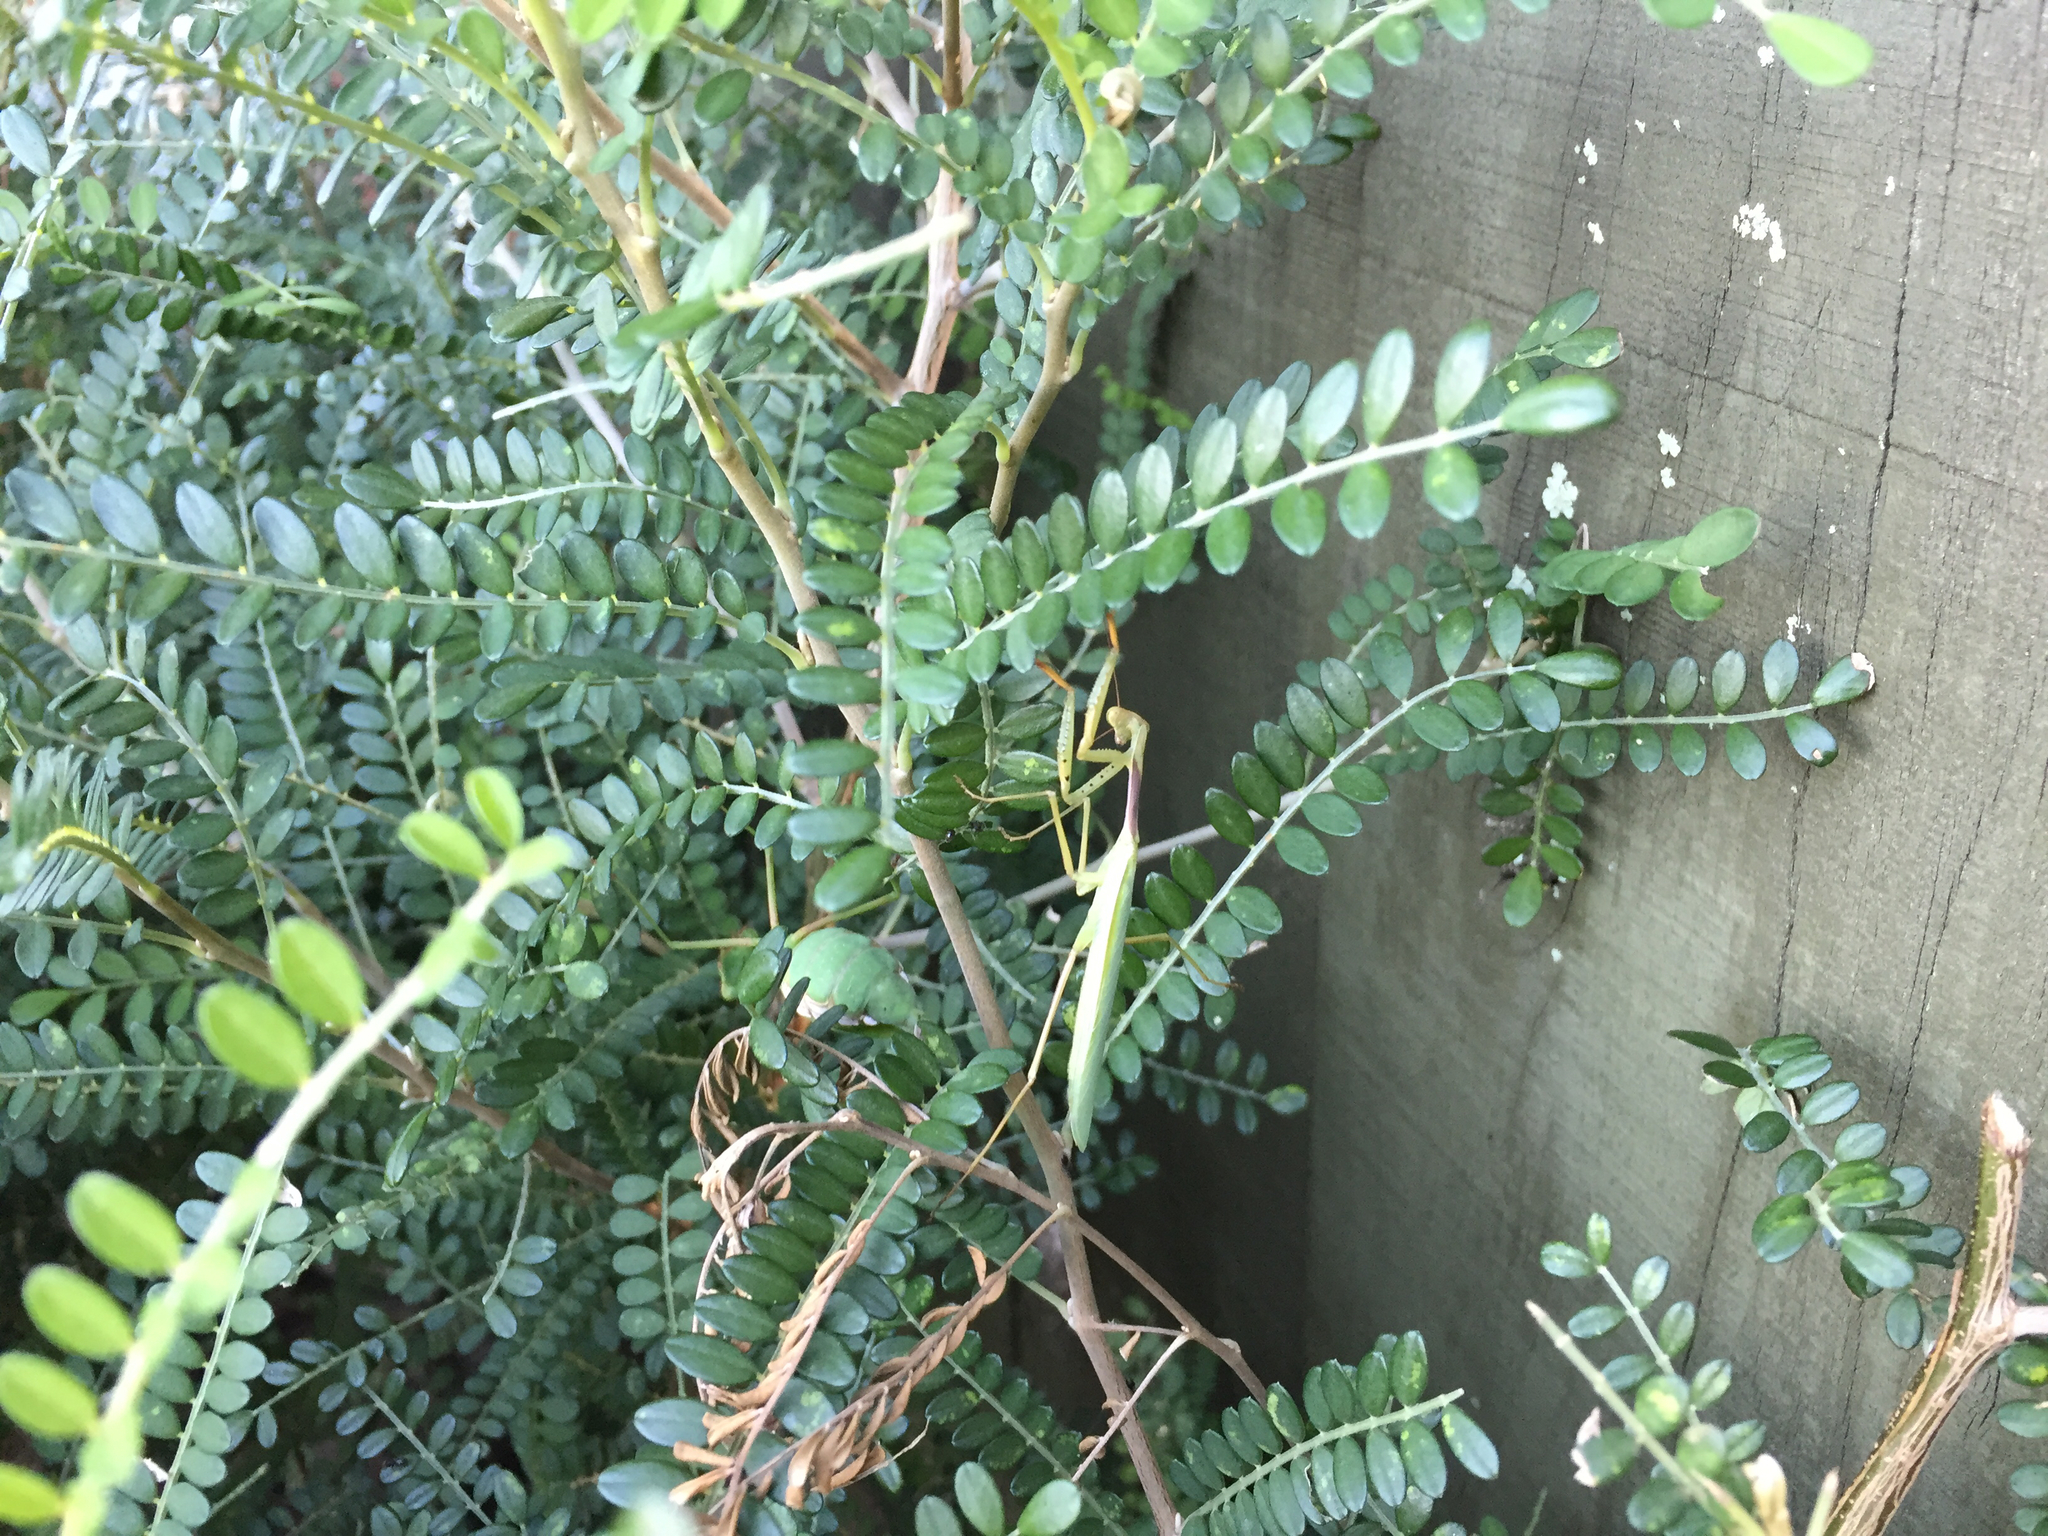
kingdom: Animalia
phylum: Arthropoda
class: Insecta
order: Mantodea
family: Miomantidae
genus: Miomantis
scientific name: Miomantis caffra
